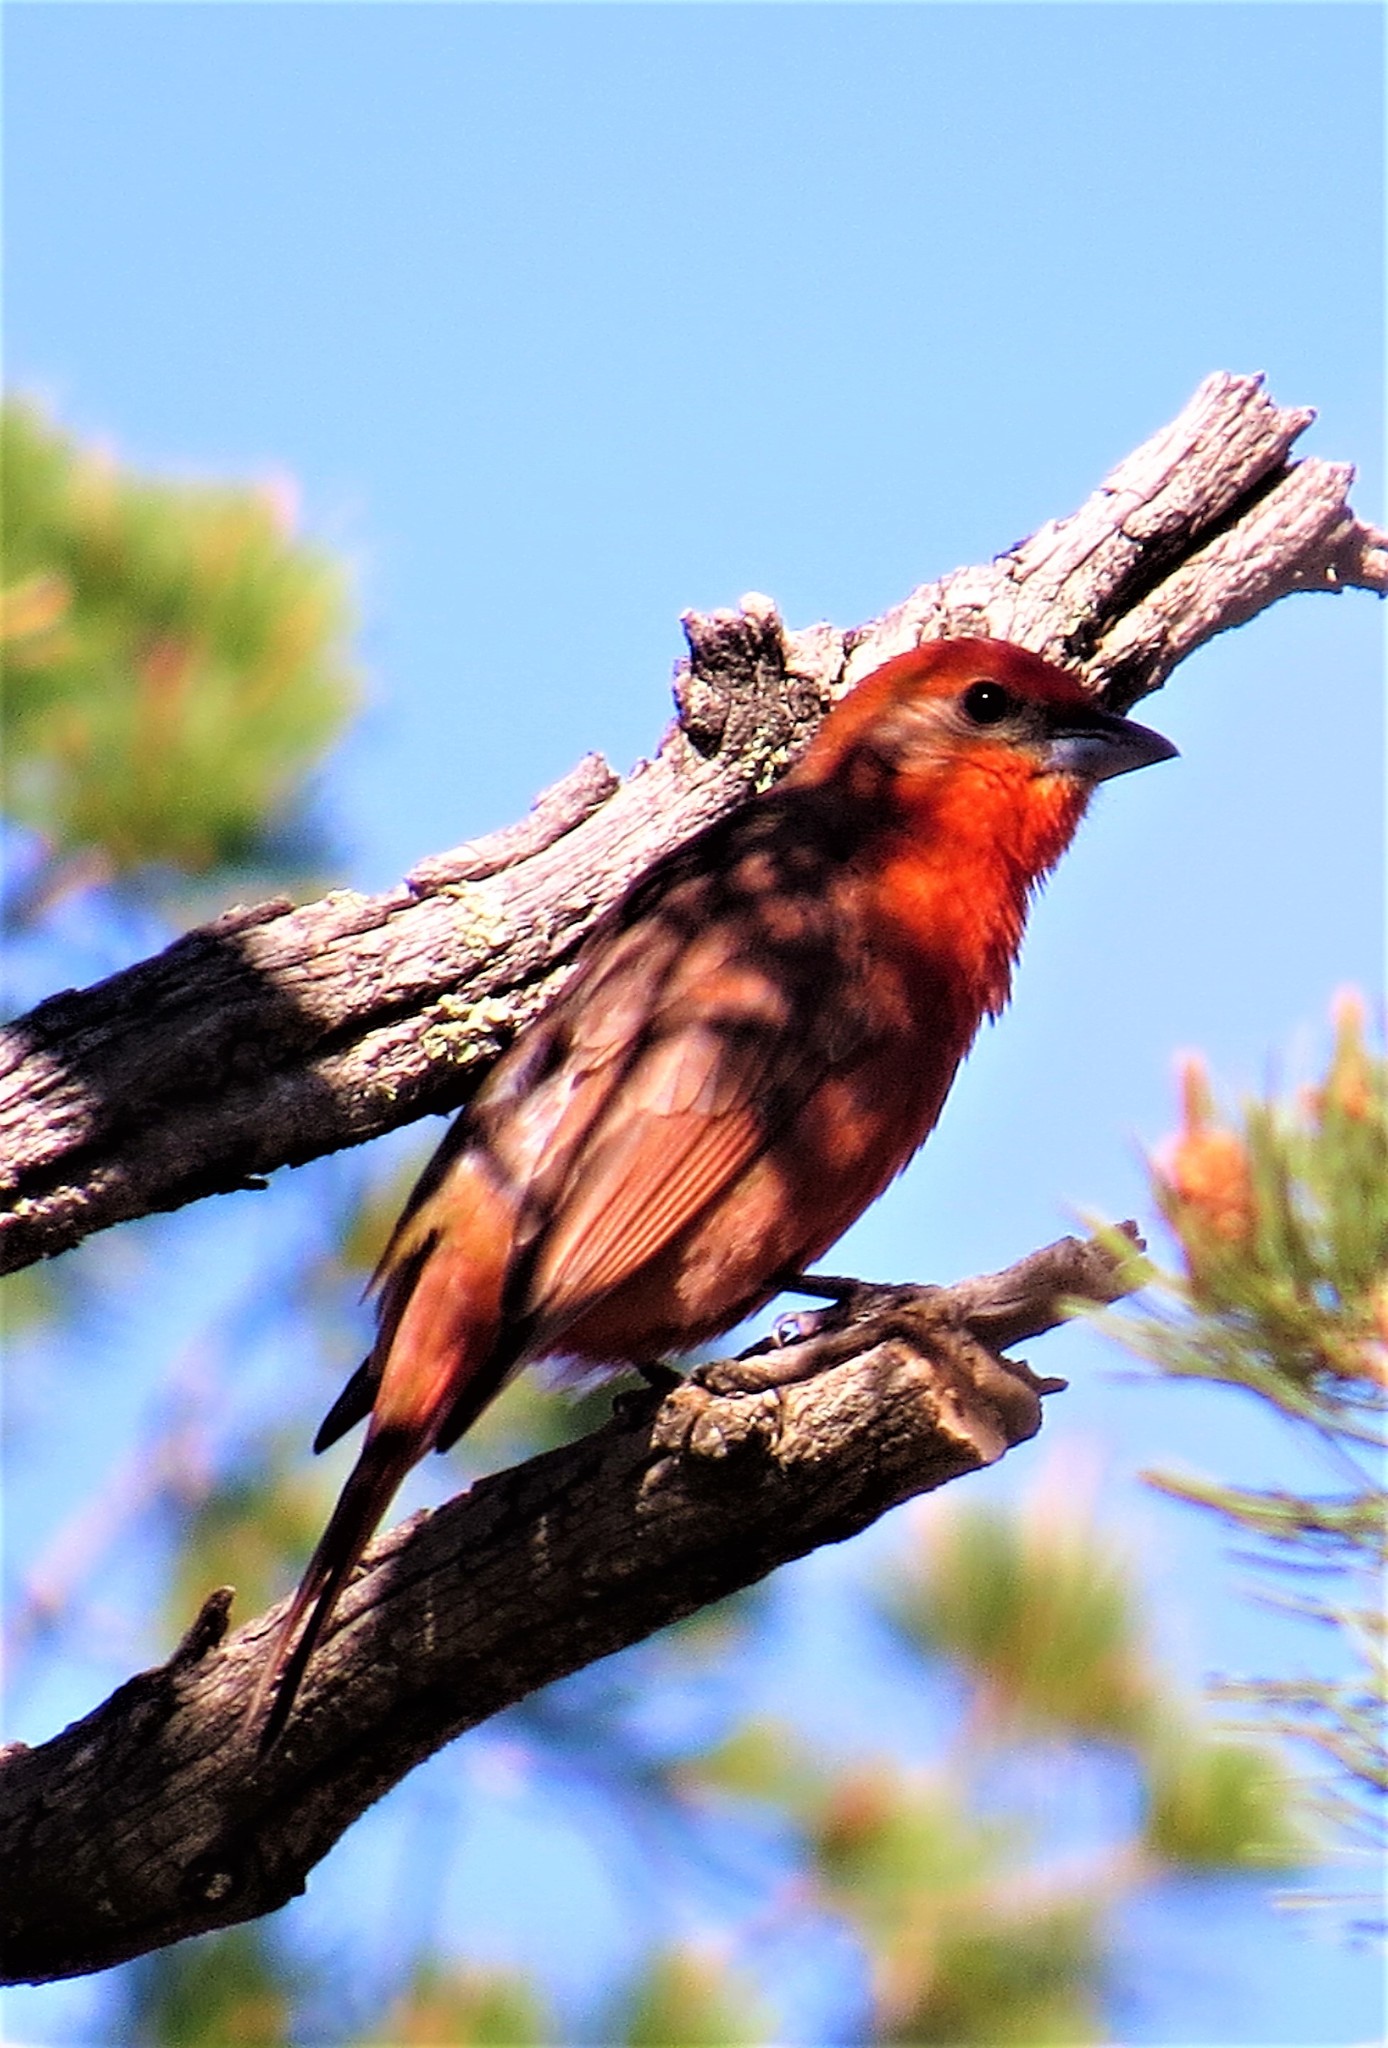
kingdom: Animalia
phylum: Chordata
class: Aves
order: Passeriformes
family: Cardinalidae
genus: Piranga
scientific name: Piranga flava
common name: Red tanager
